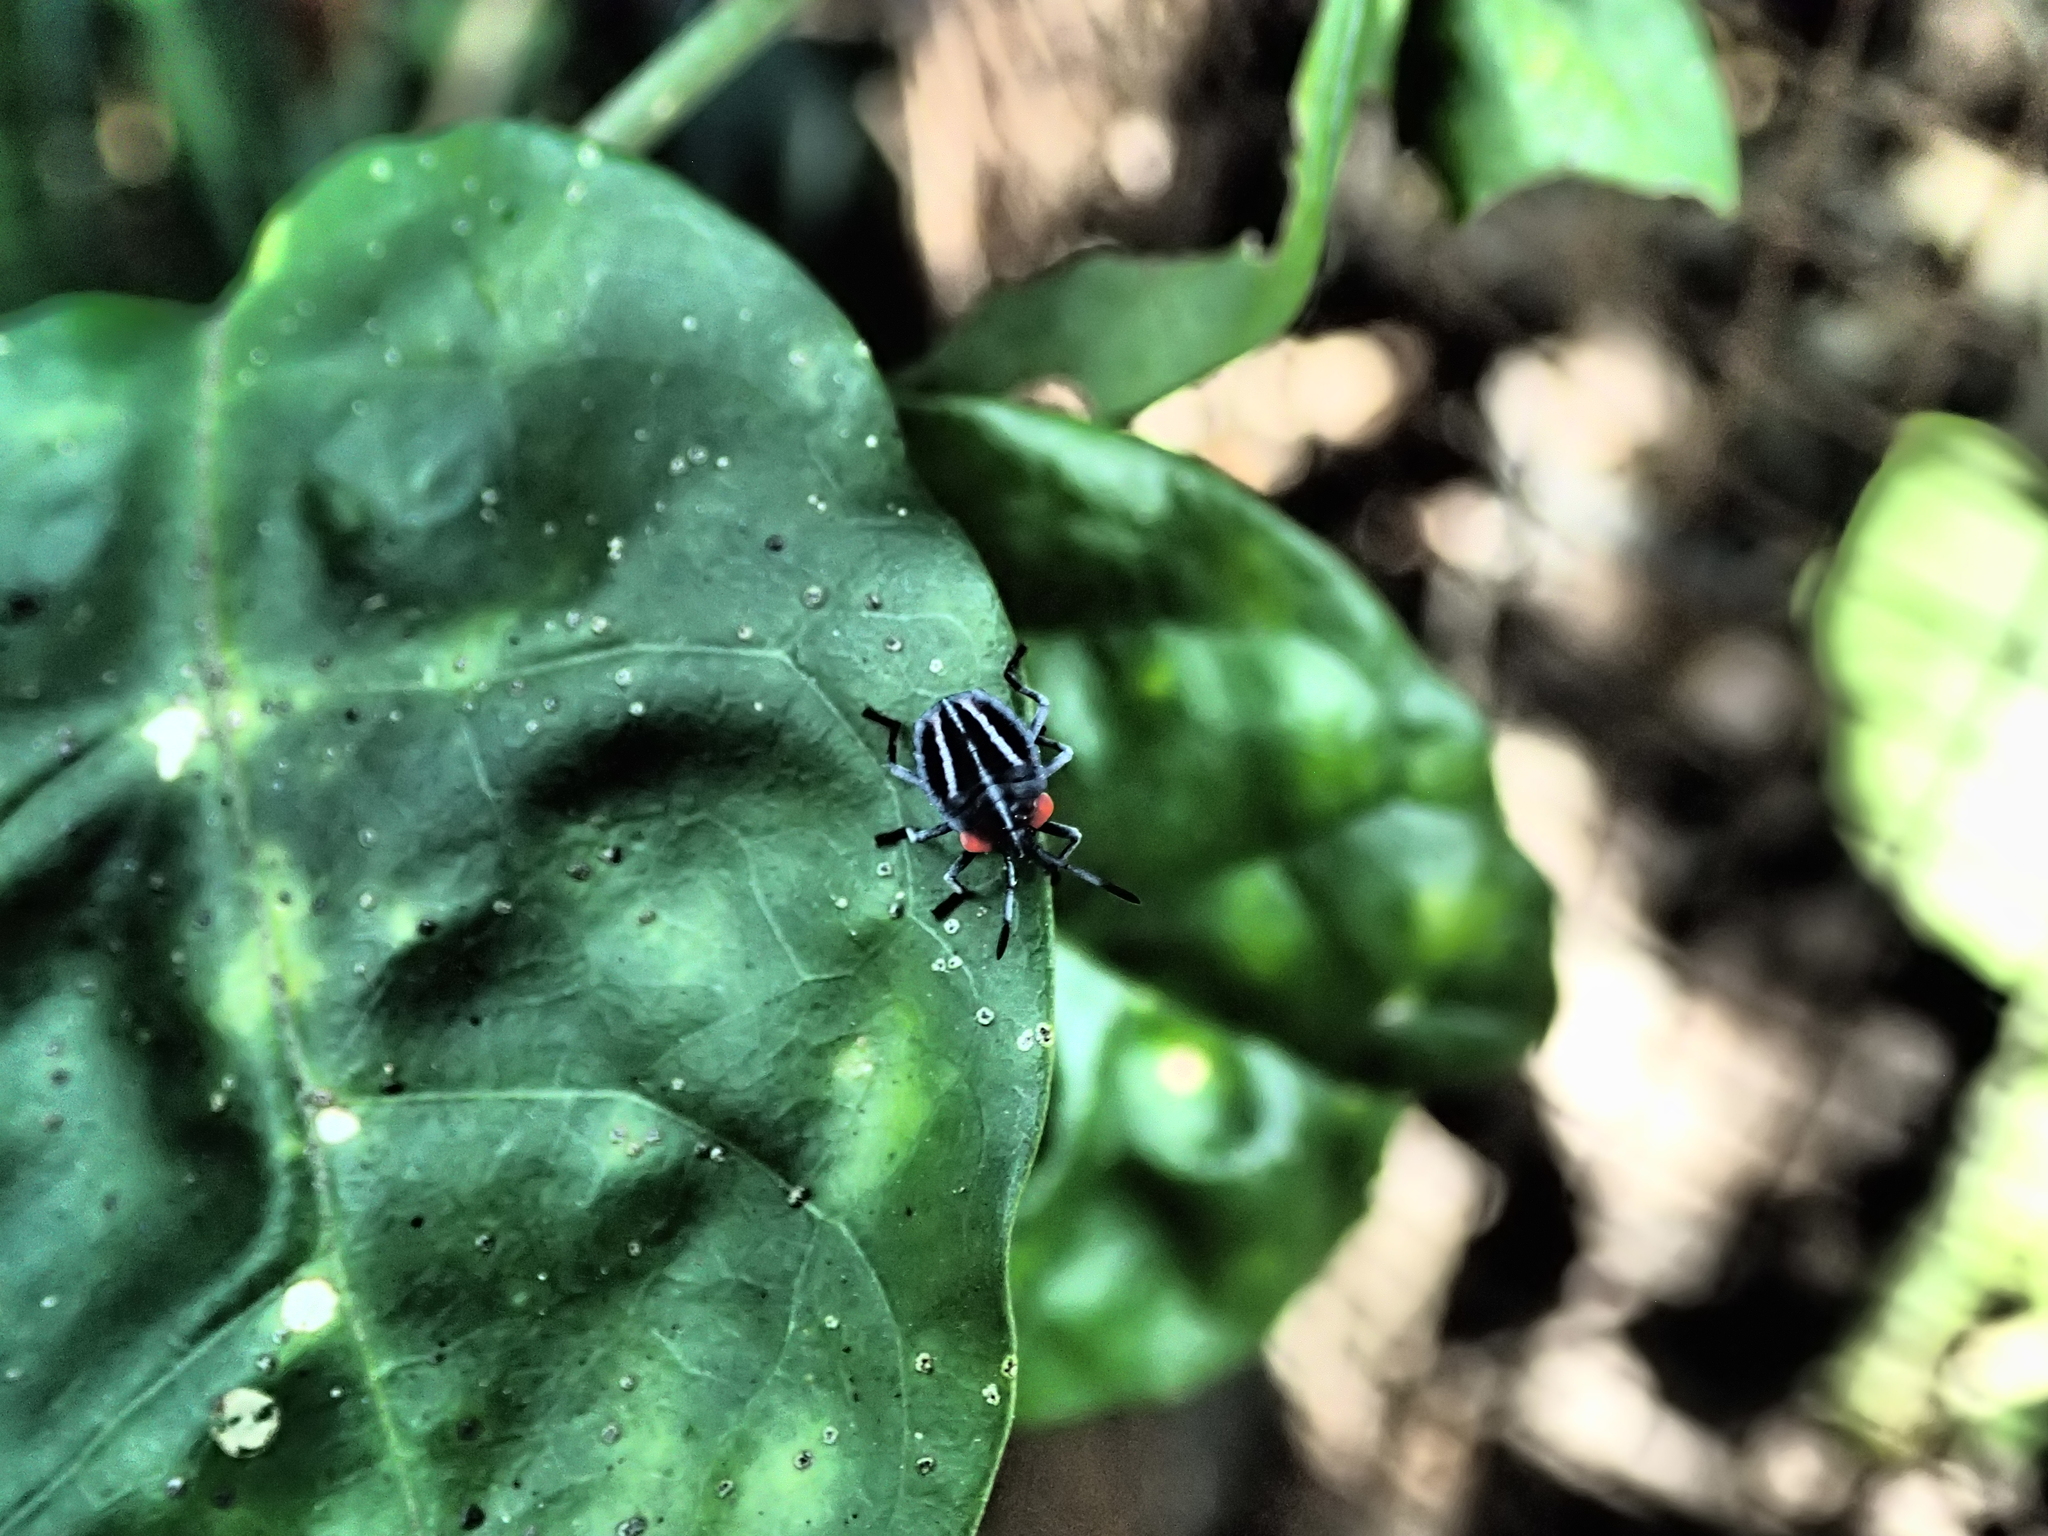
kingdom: Animalia
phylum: Arthropoda
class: Insecta
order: Hemiptera
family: Tessaratomidae
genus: Tessaratoma
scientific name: Tessaratoma papillosa
